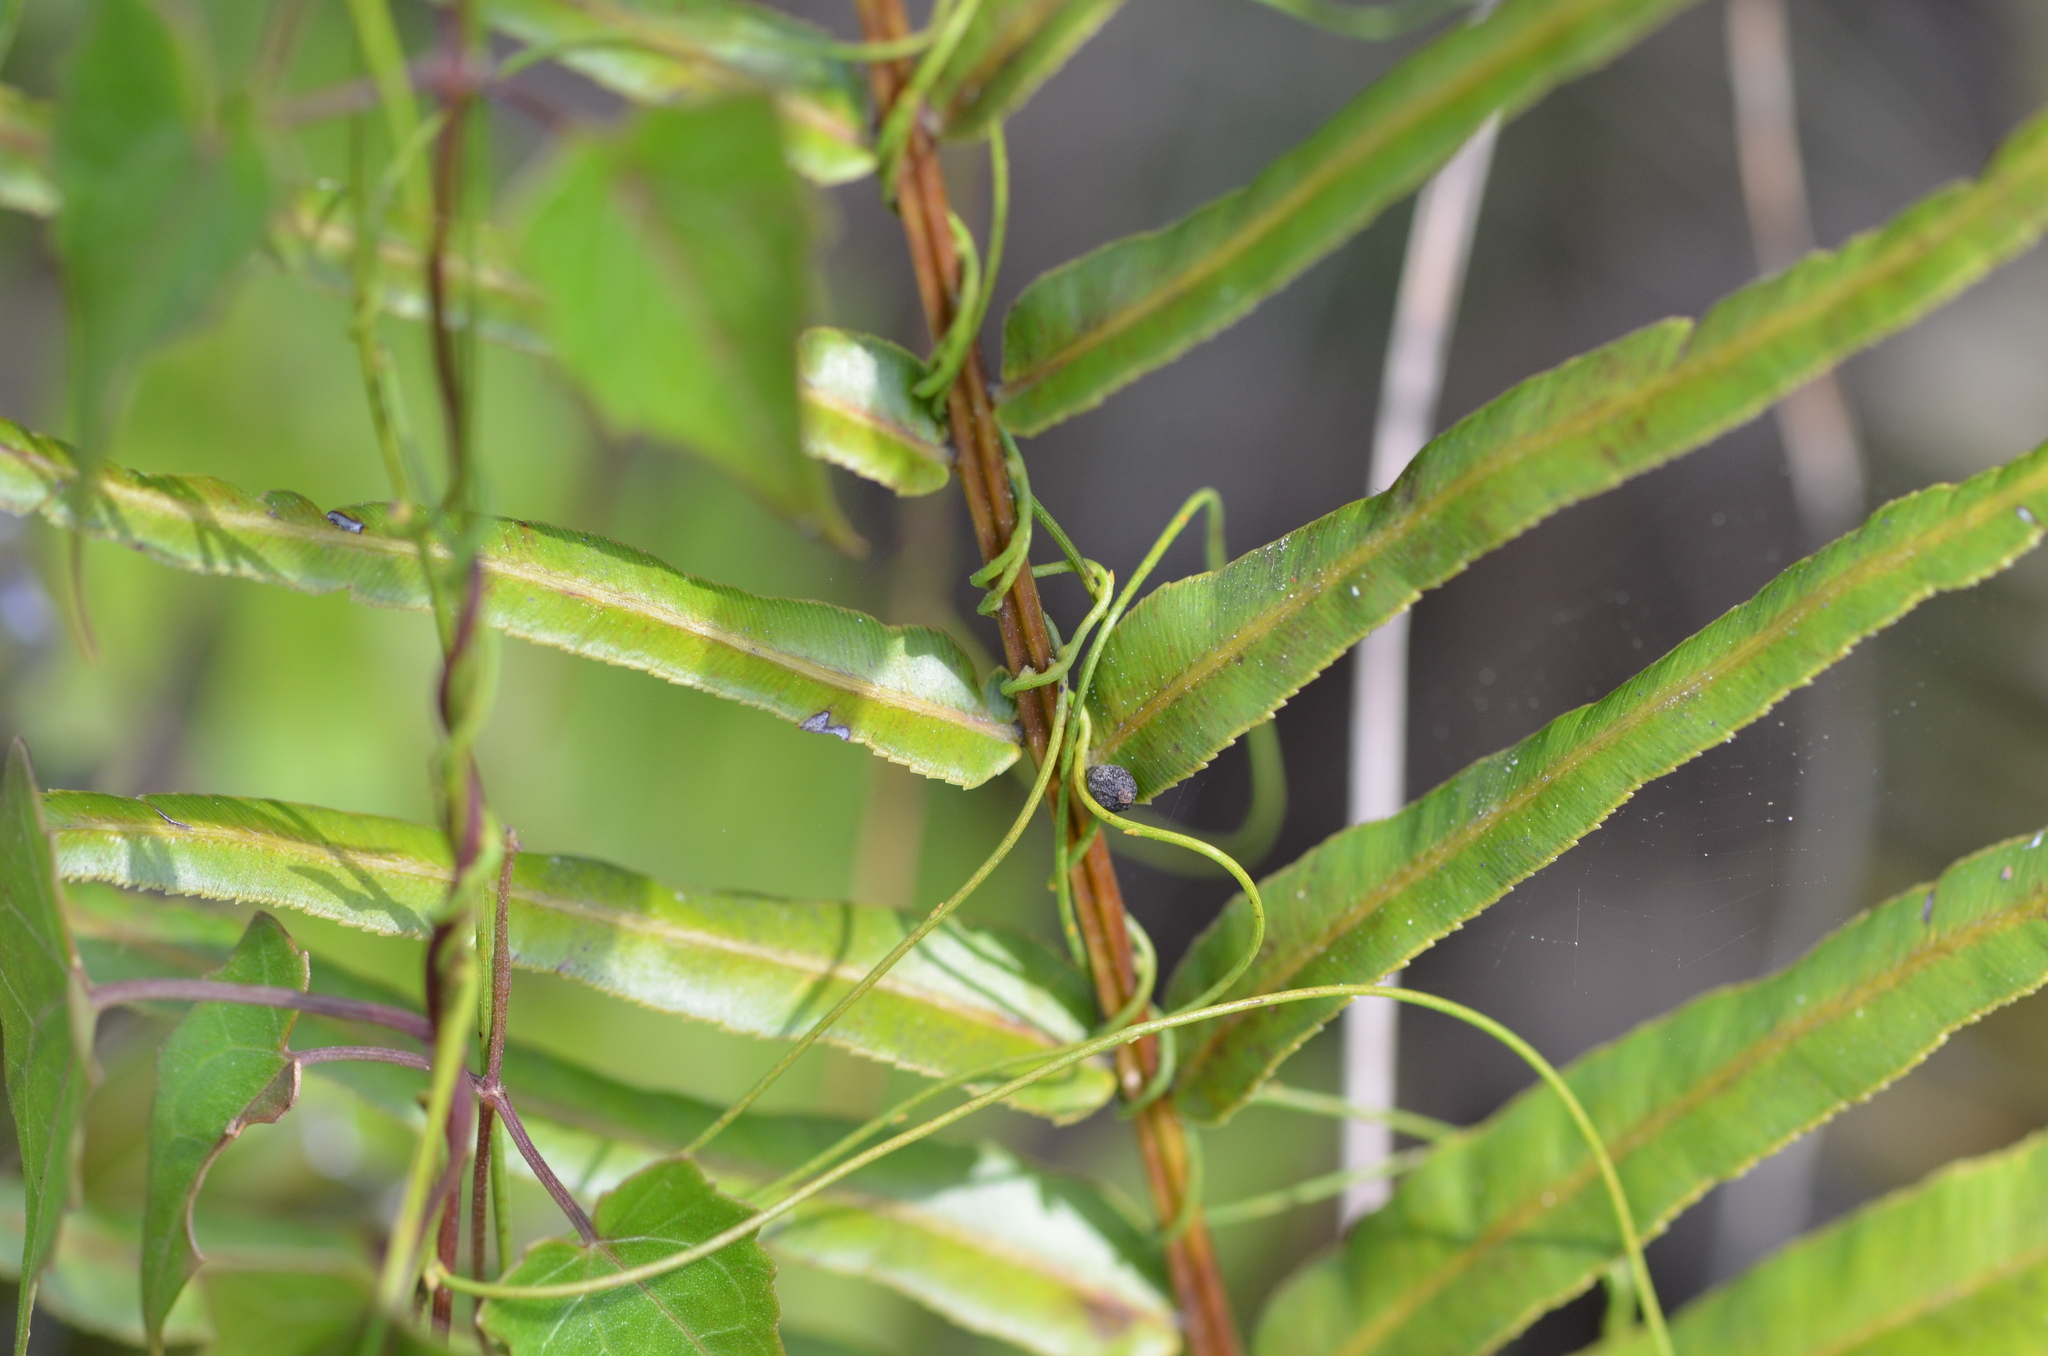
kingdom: Plantae
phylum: Tracheophyta
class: Magnoliopsida
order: Laurales
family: Lauraceae
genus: Cassytha
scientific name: Cassytha filiformis
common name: Dodder-laurel
